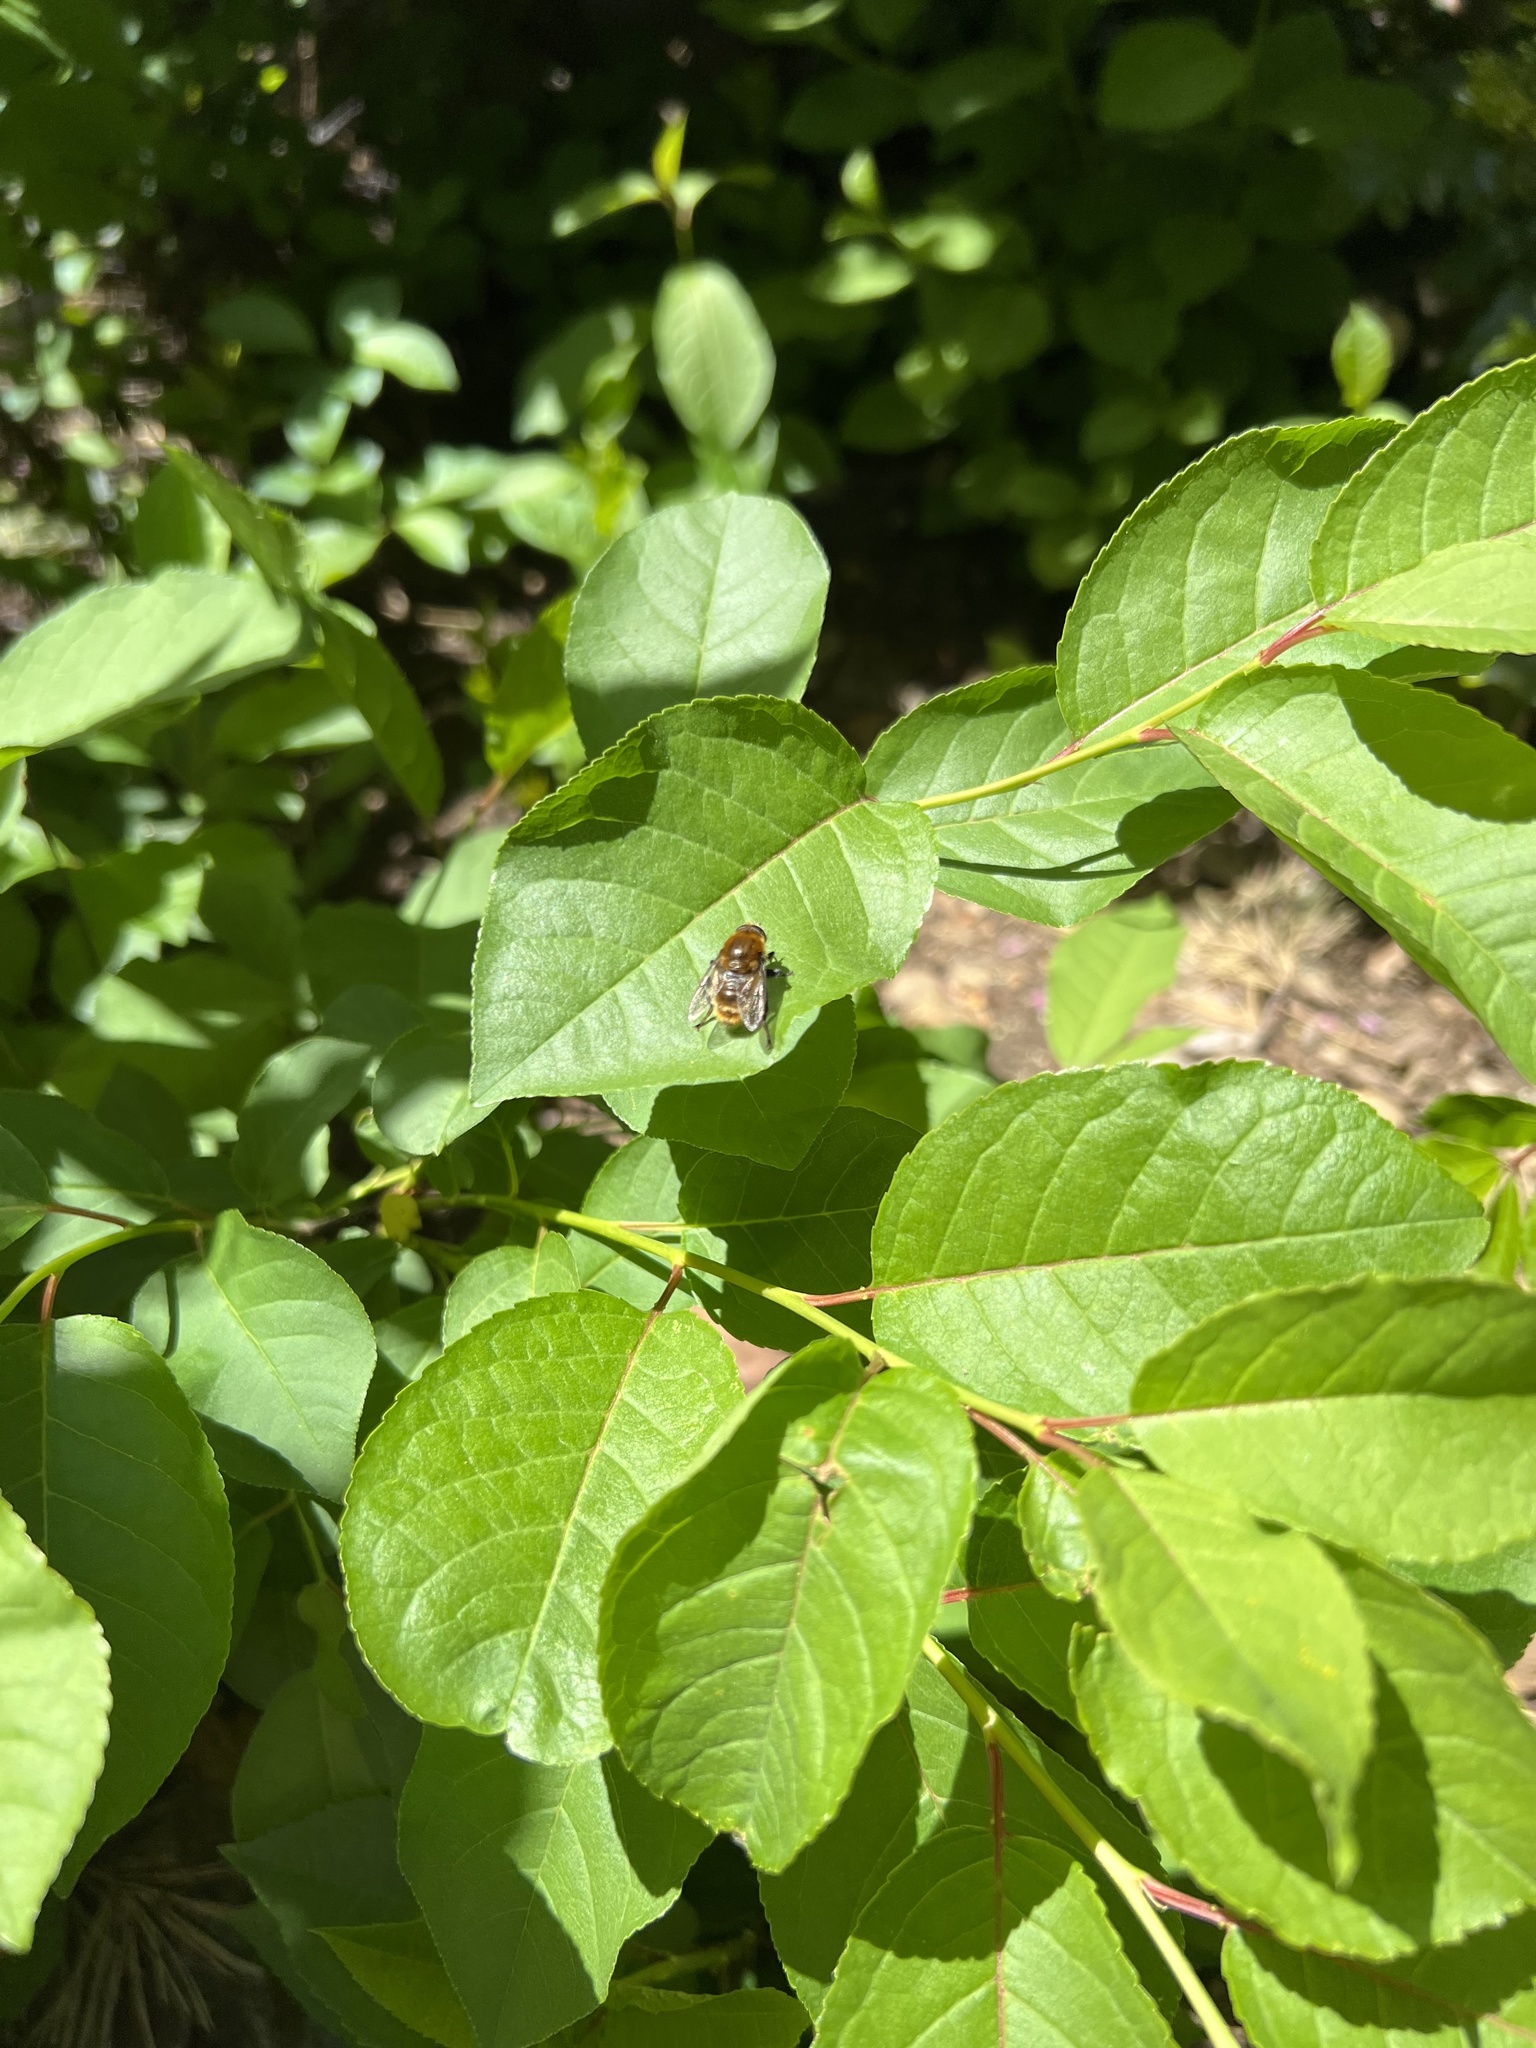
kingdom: Animalia
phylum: Arthropoda
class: Insecta
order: Diptera
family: Syrphidae
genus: Merodon
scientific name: Merodon equestris
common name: Greater bulb-fly
